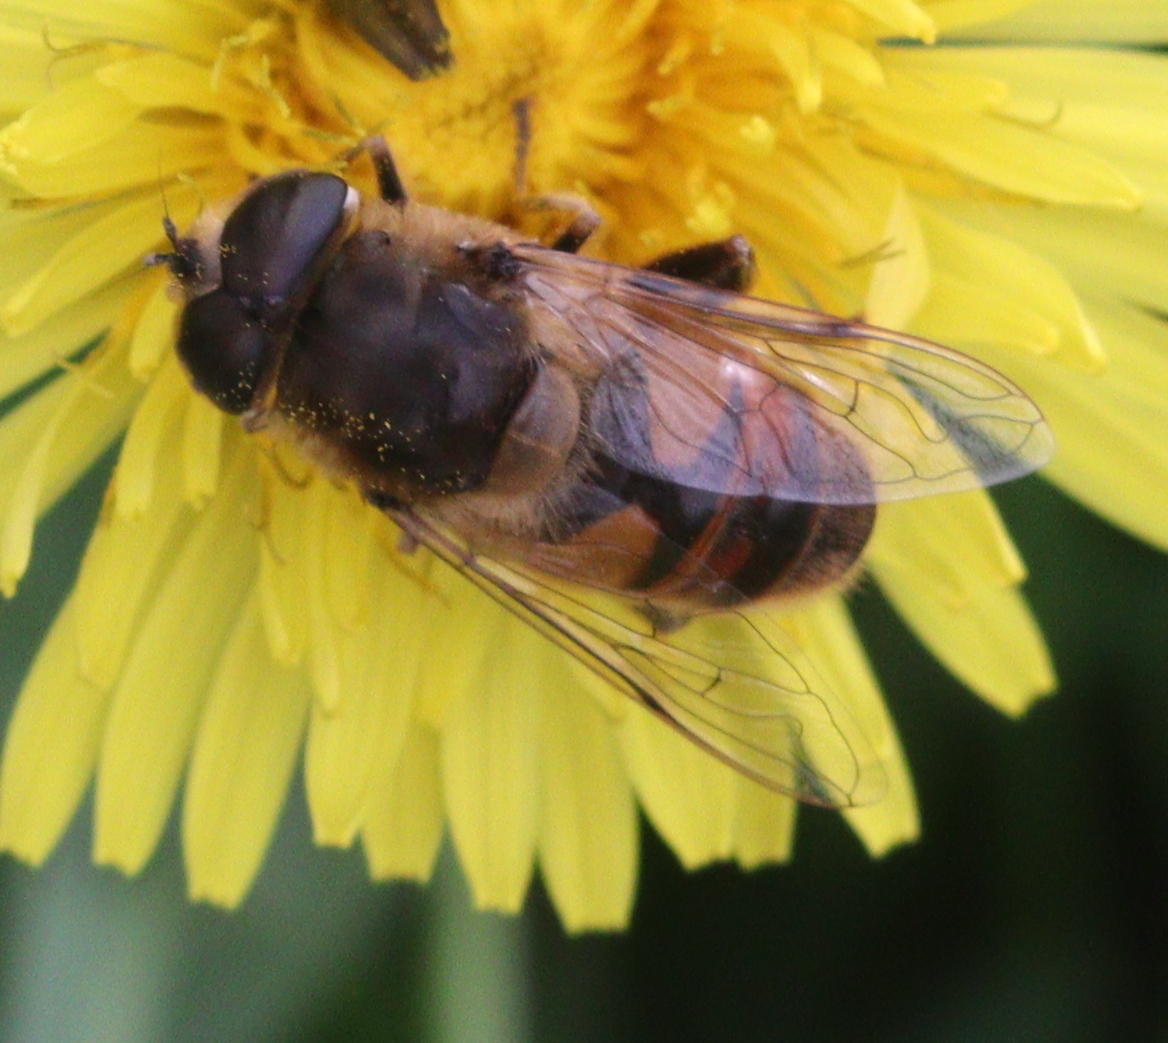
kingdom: Animalia
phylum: Arthropoda
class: Insecta
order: Diptera
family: Syrphidae
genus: Eristalis
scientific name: Eristalis tenax
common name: Drone fly
